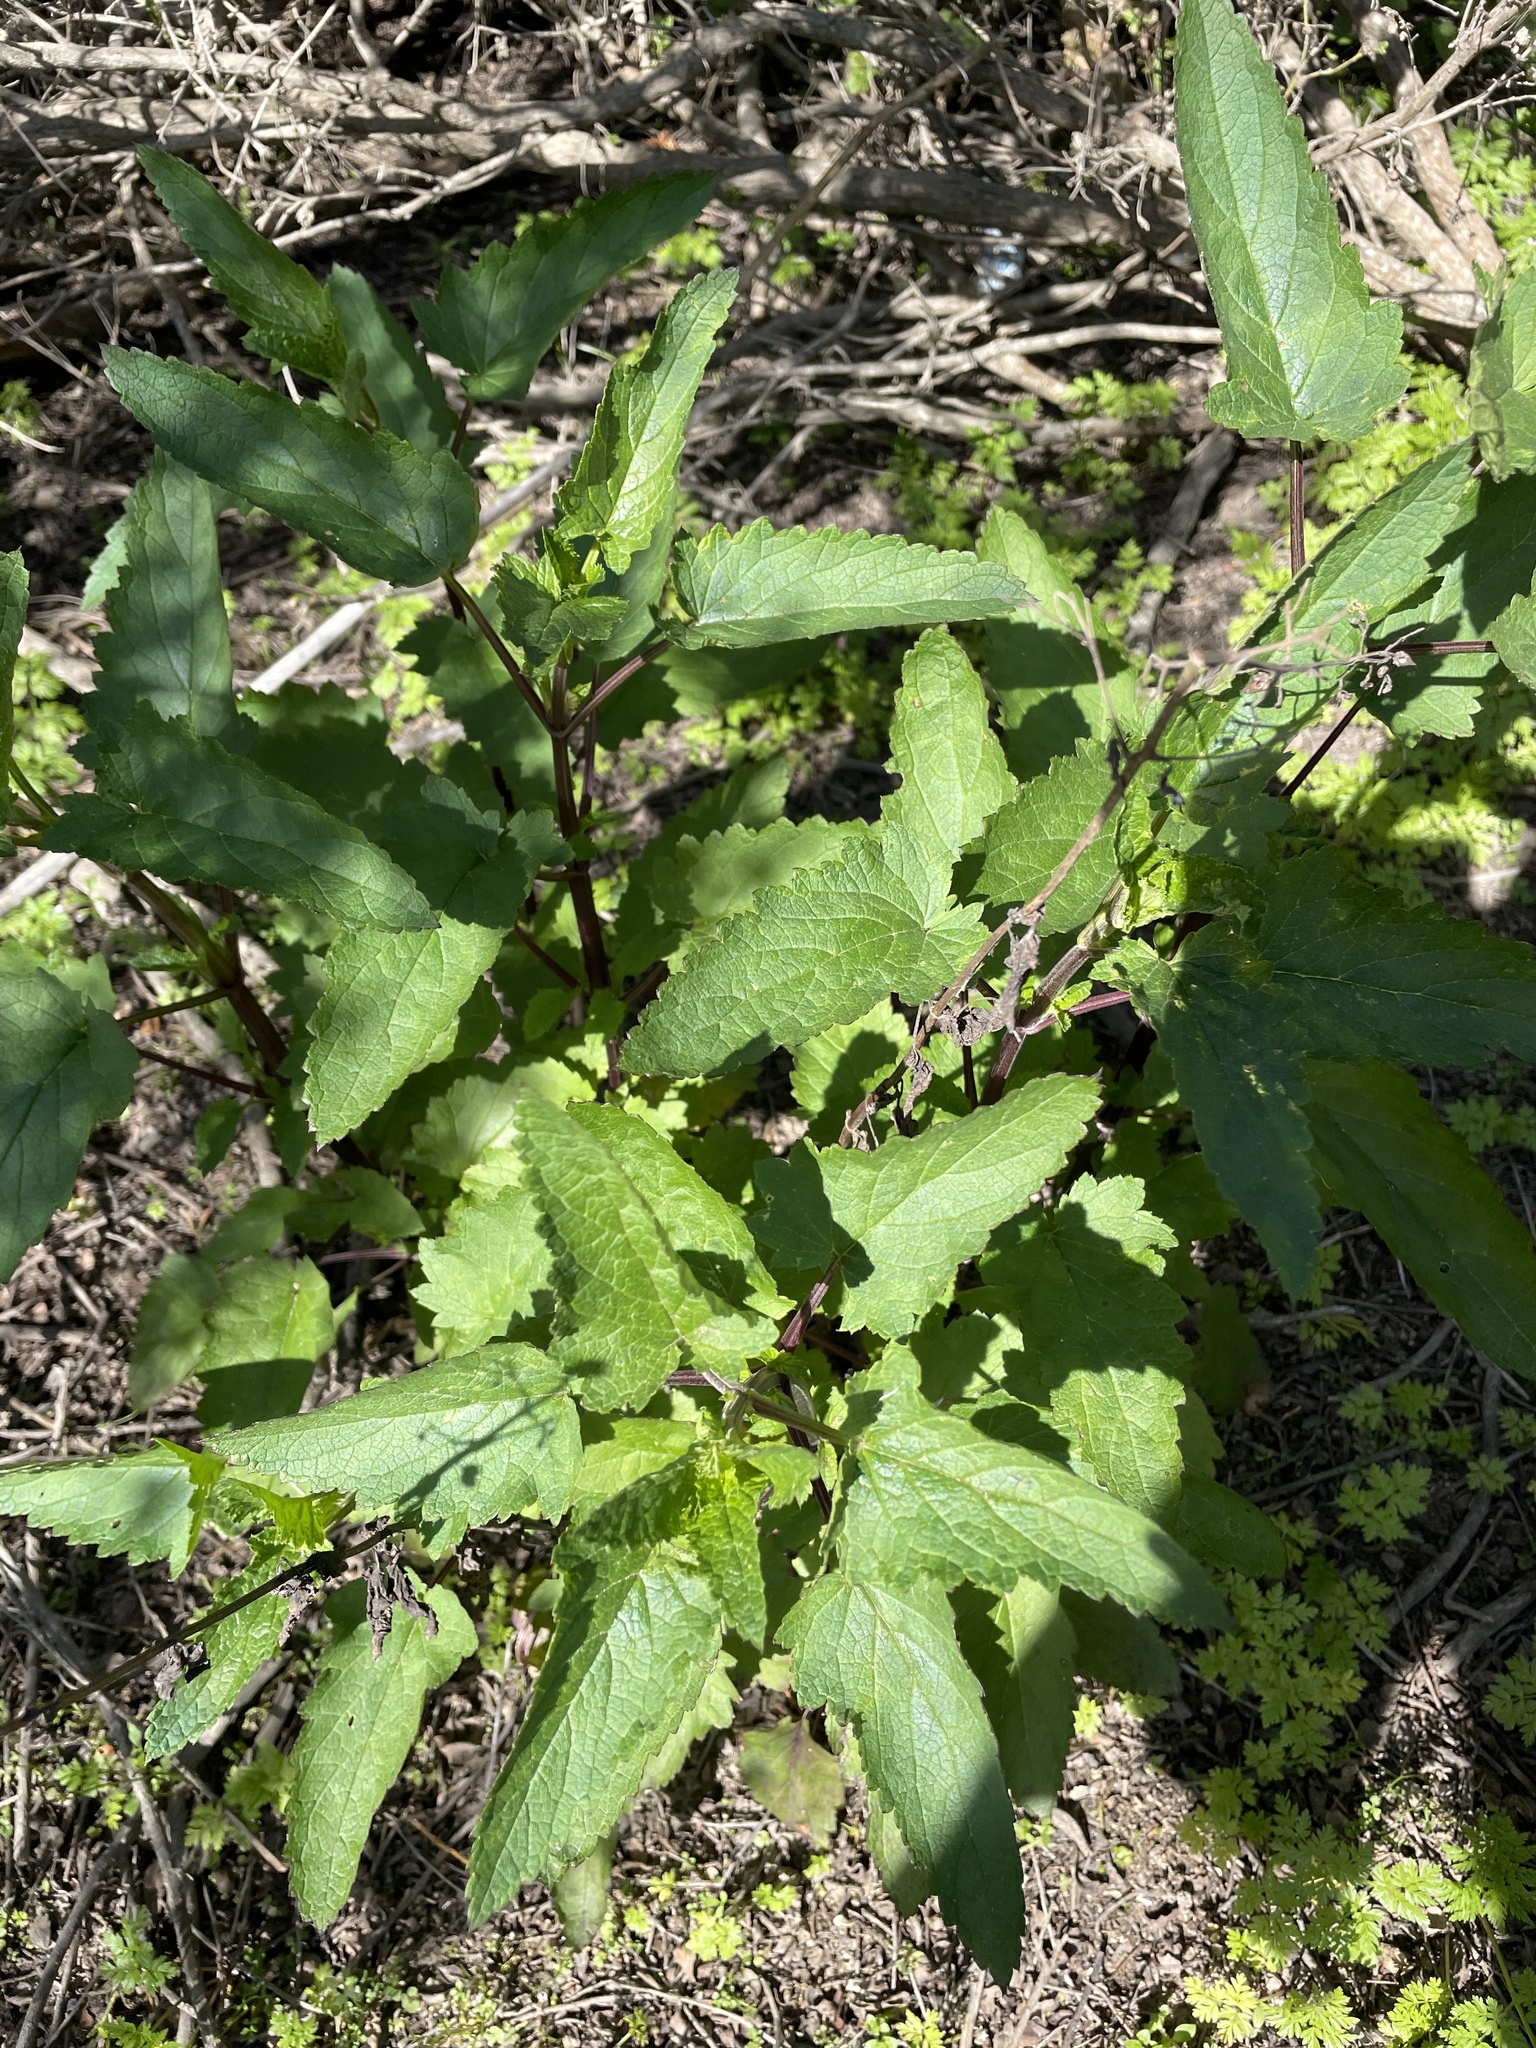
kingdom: Plantae
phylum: Tracheophyta
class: Magnoliopsida
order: Lamiales
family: Scrophulariaceae
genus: Scrophularia
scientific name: Scrophularia californica
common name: California figwort
